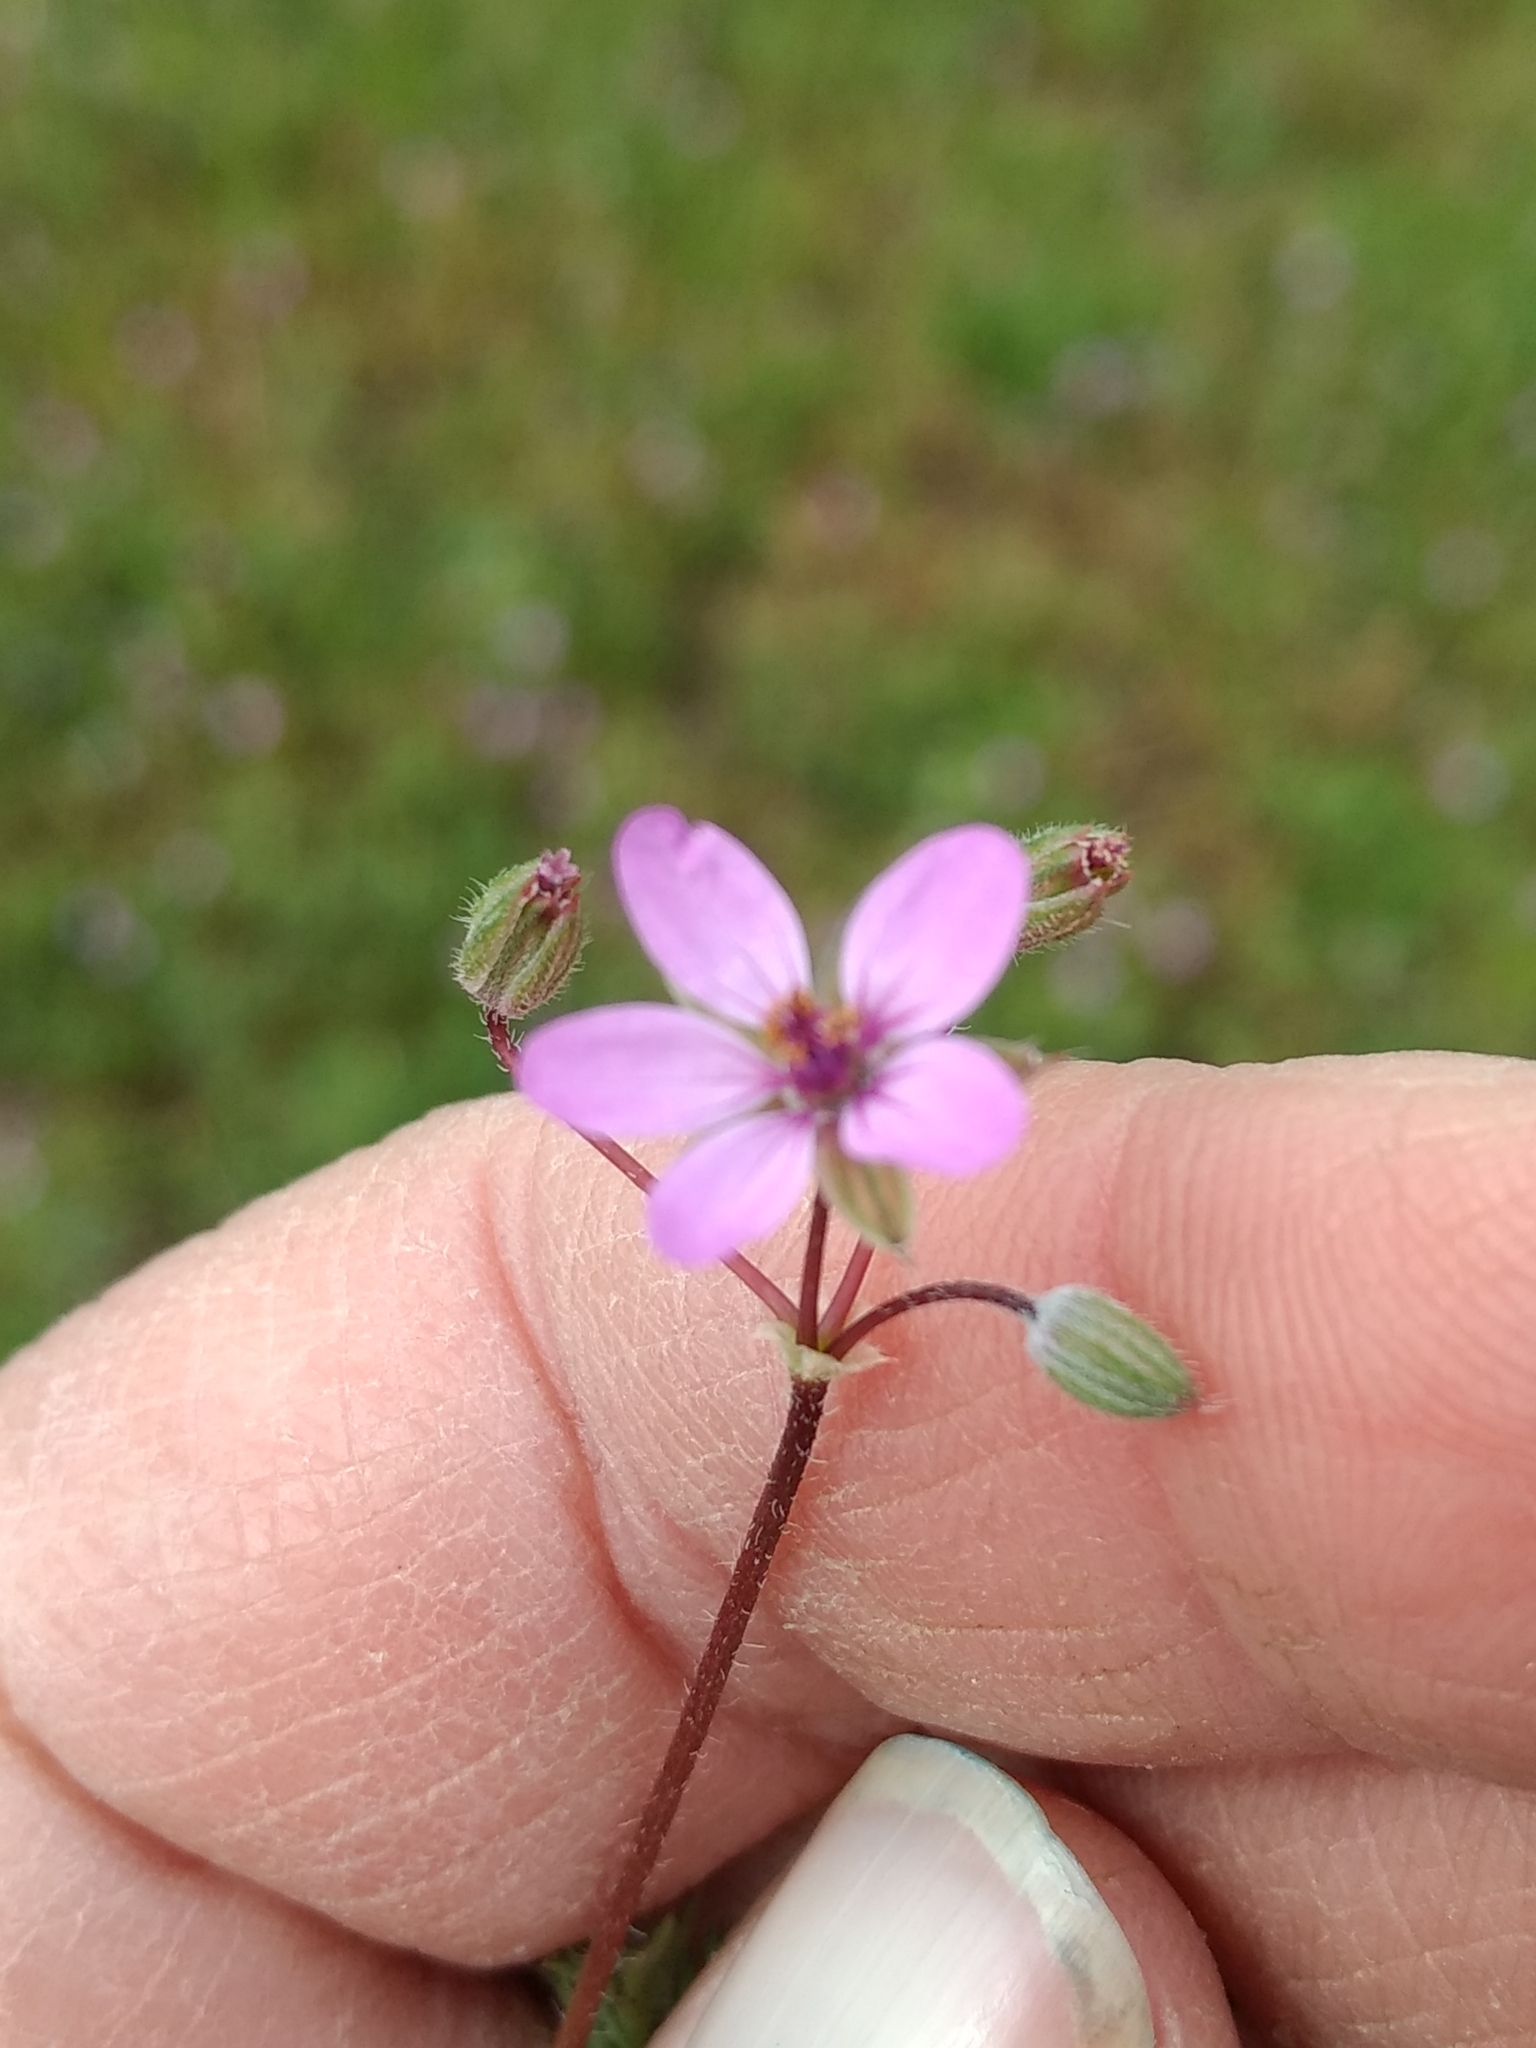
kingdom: Plantae
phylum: Tracheophyta
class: Magnoliopsida
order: Geraniales
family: Geraniaceae
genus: Erodium
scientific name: Erodium cicutarium
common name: Common stork's-bill
